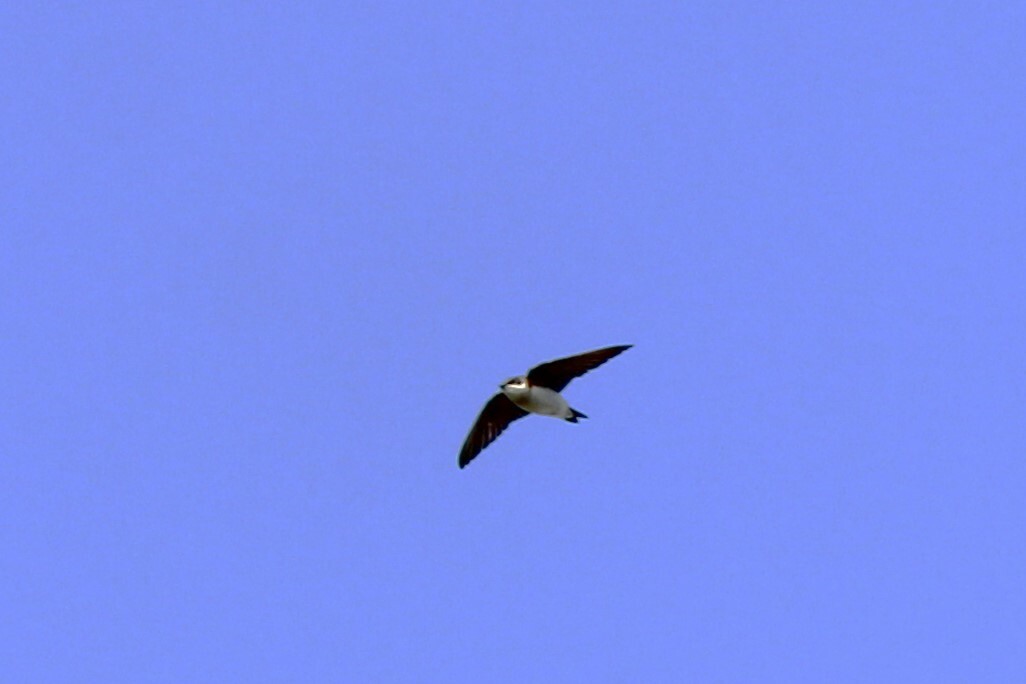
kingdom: Animalia
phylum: Chordata
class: Aves
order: Passeriformes
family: Hirundinidae
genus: Riparia
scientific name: Riparia riparia
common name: Sand martin
